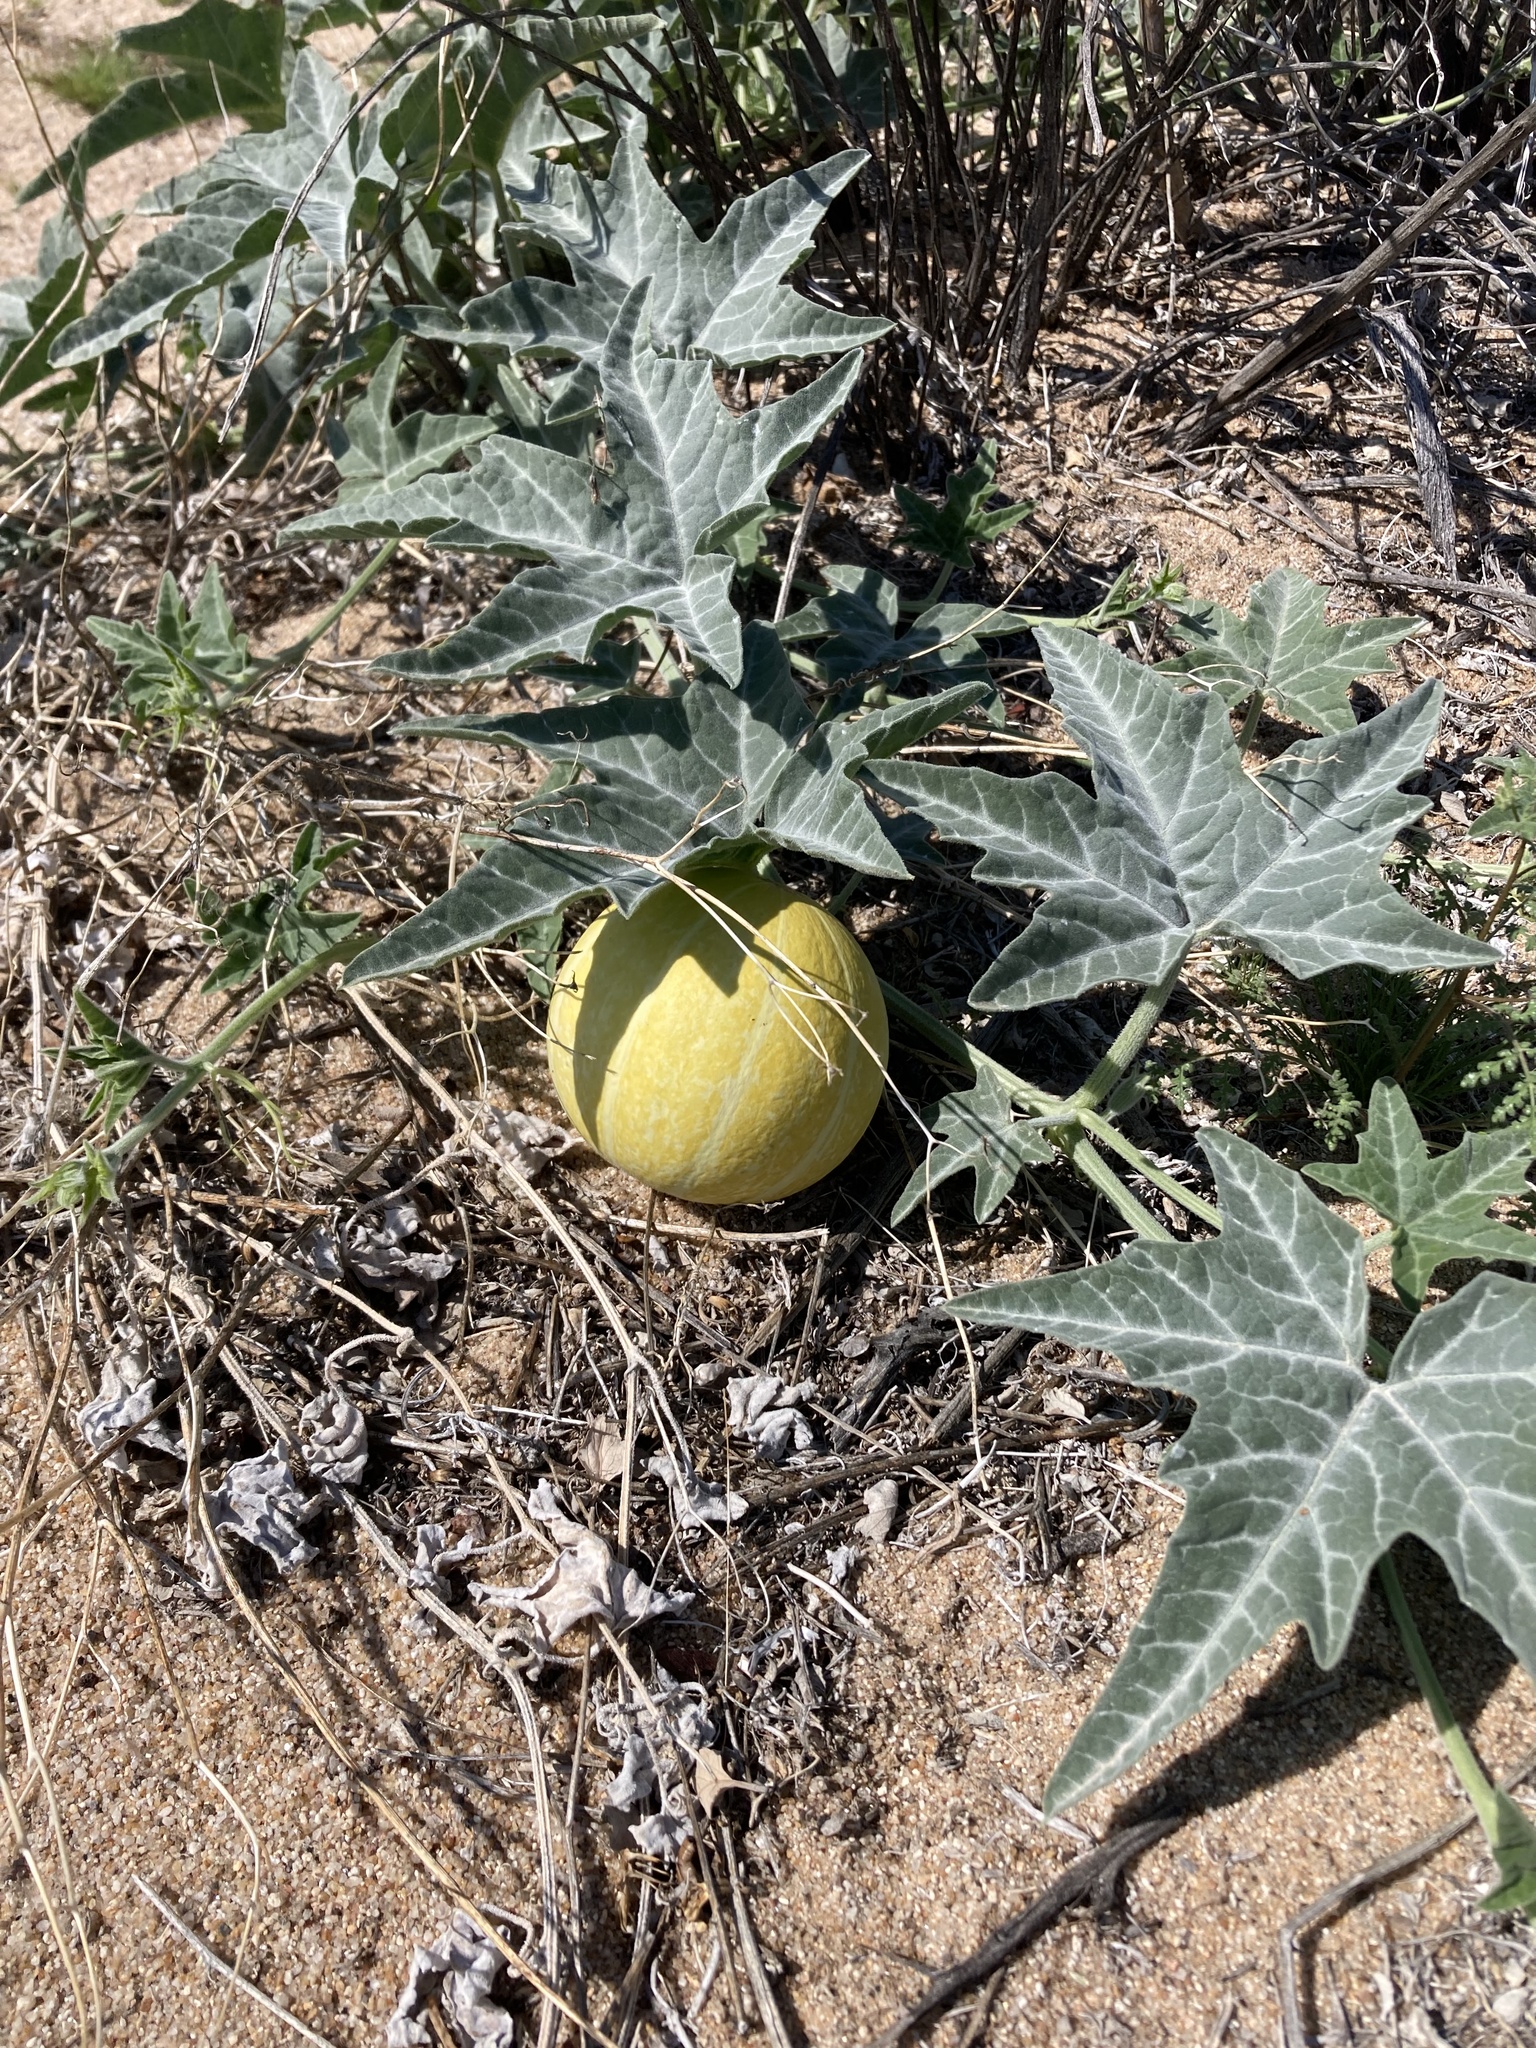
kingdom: Plantae
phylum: Tracheophyta
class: Magnoliopsida
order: Cucurbitales
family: Cucurbitaceae
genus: Cucurbita
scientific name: Cucurbita palmata
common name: Coyote-melon
